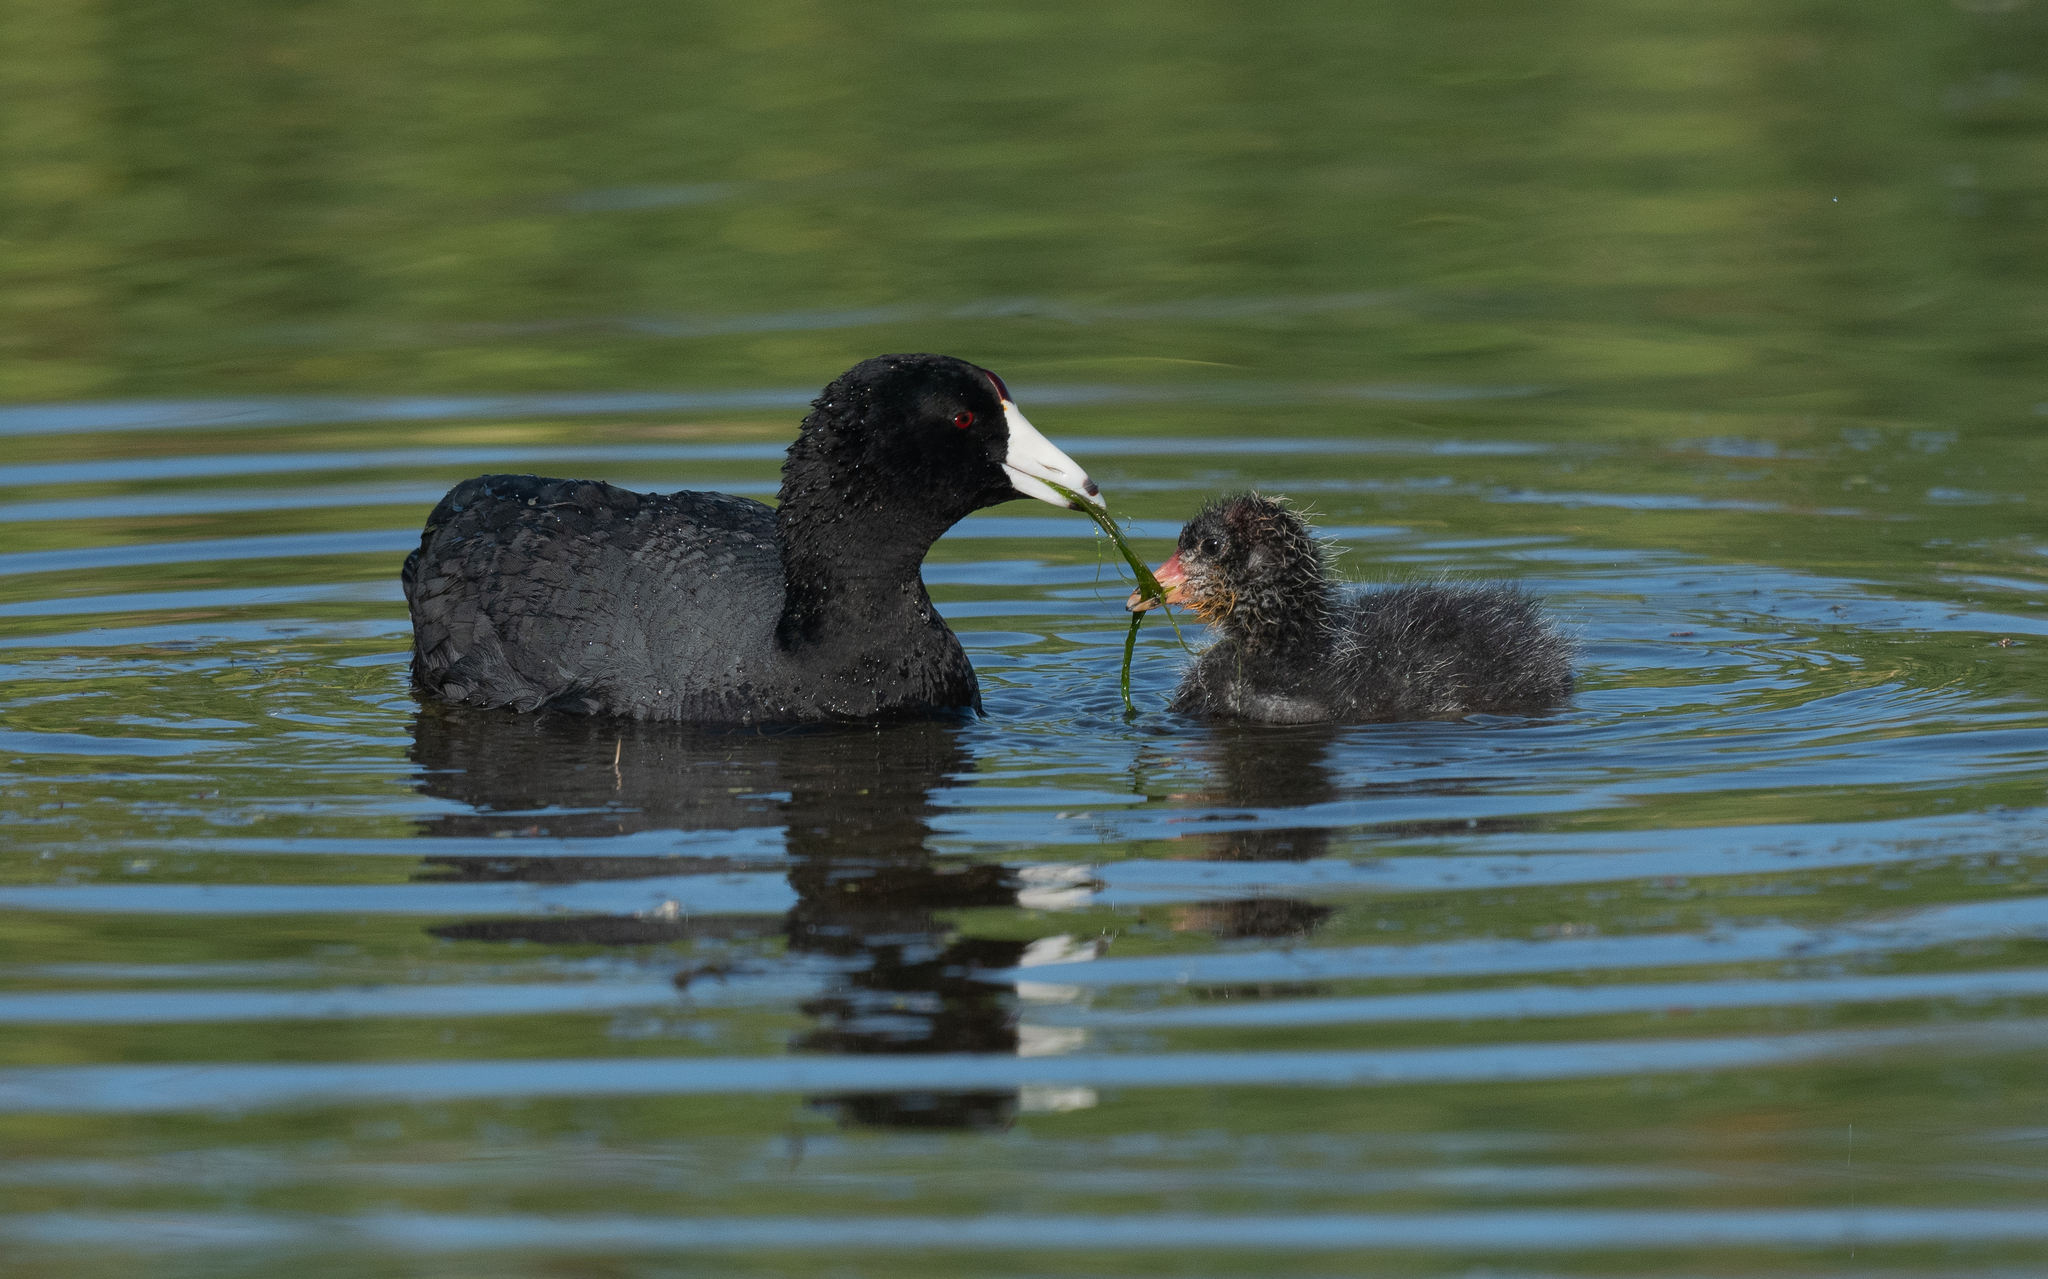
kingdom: Animalia
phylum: Chordata
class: Aves
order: Gruiformes
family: Rallidae
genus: Fulica
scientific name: Fulica americana
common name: American coot
